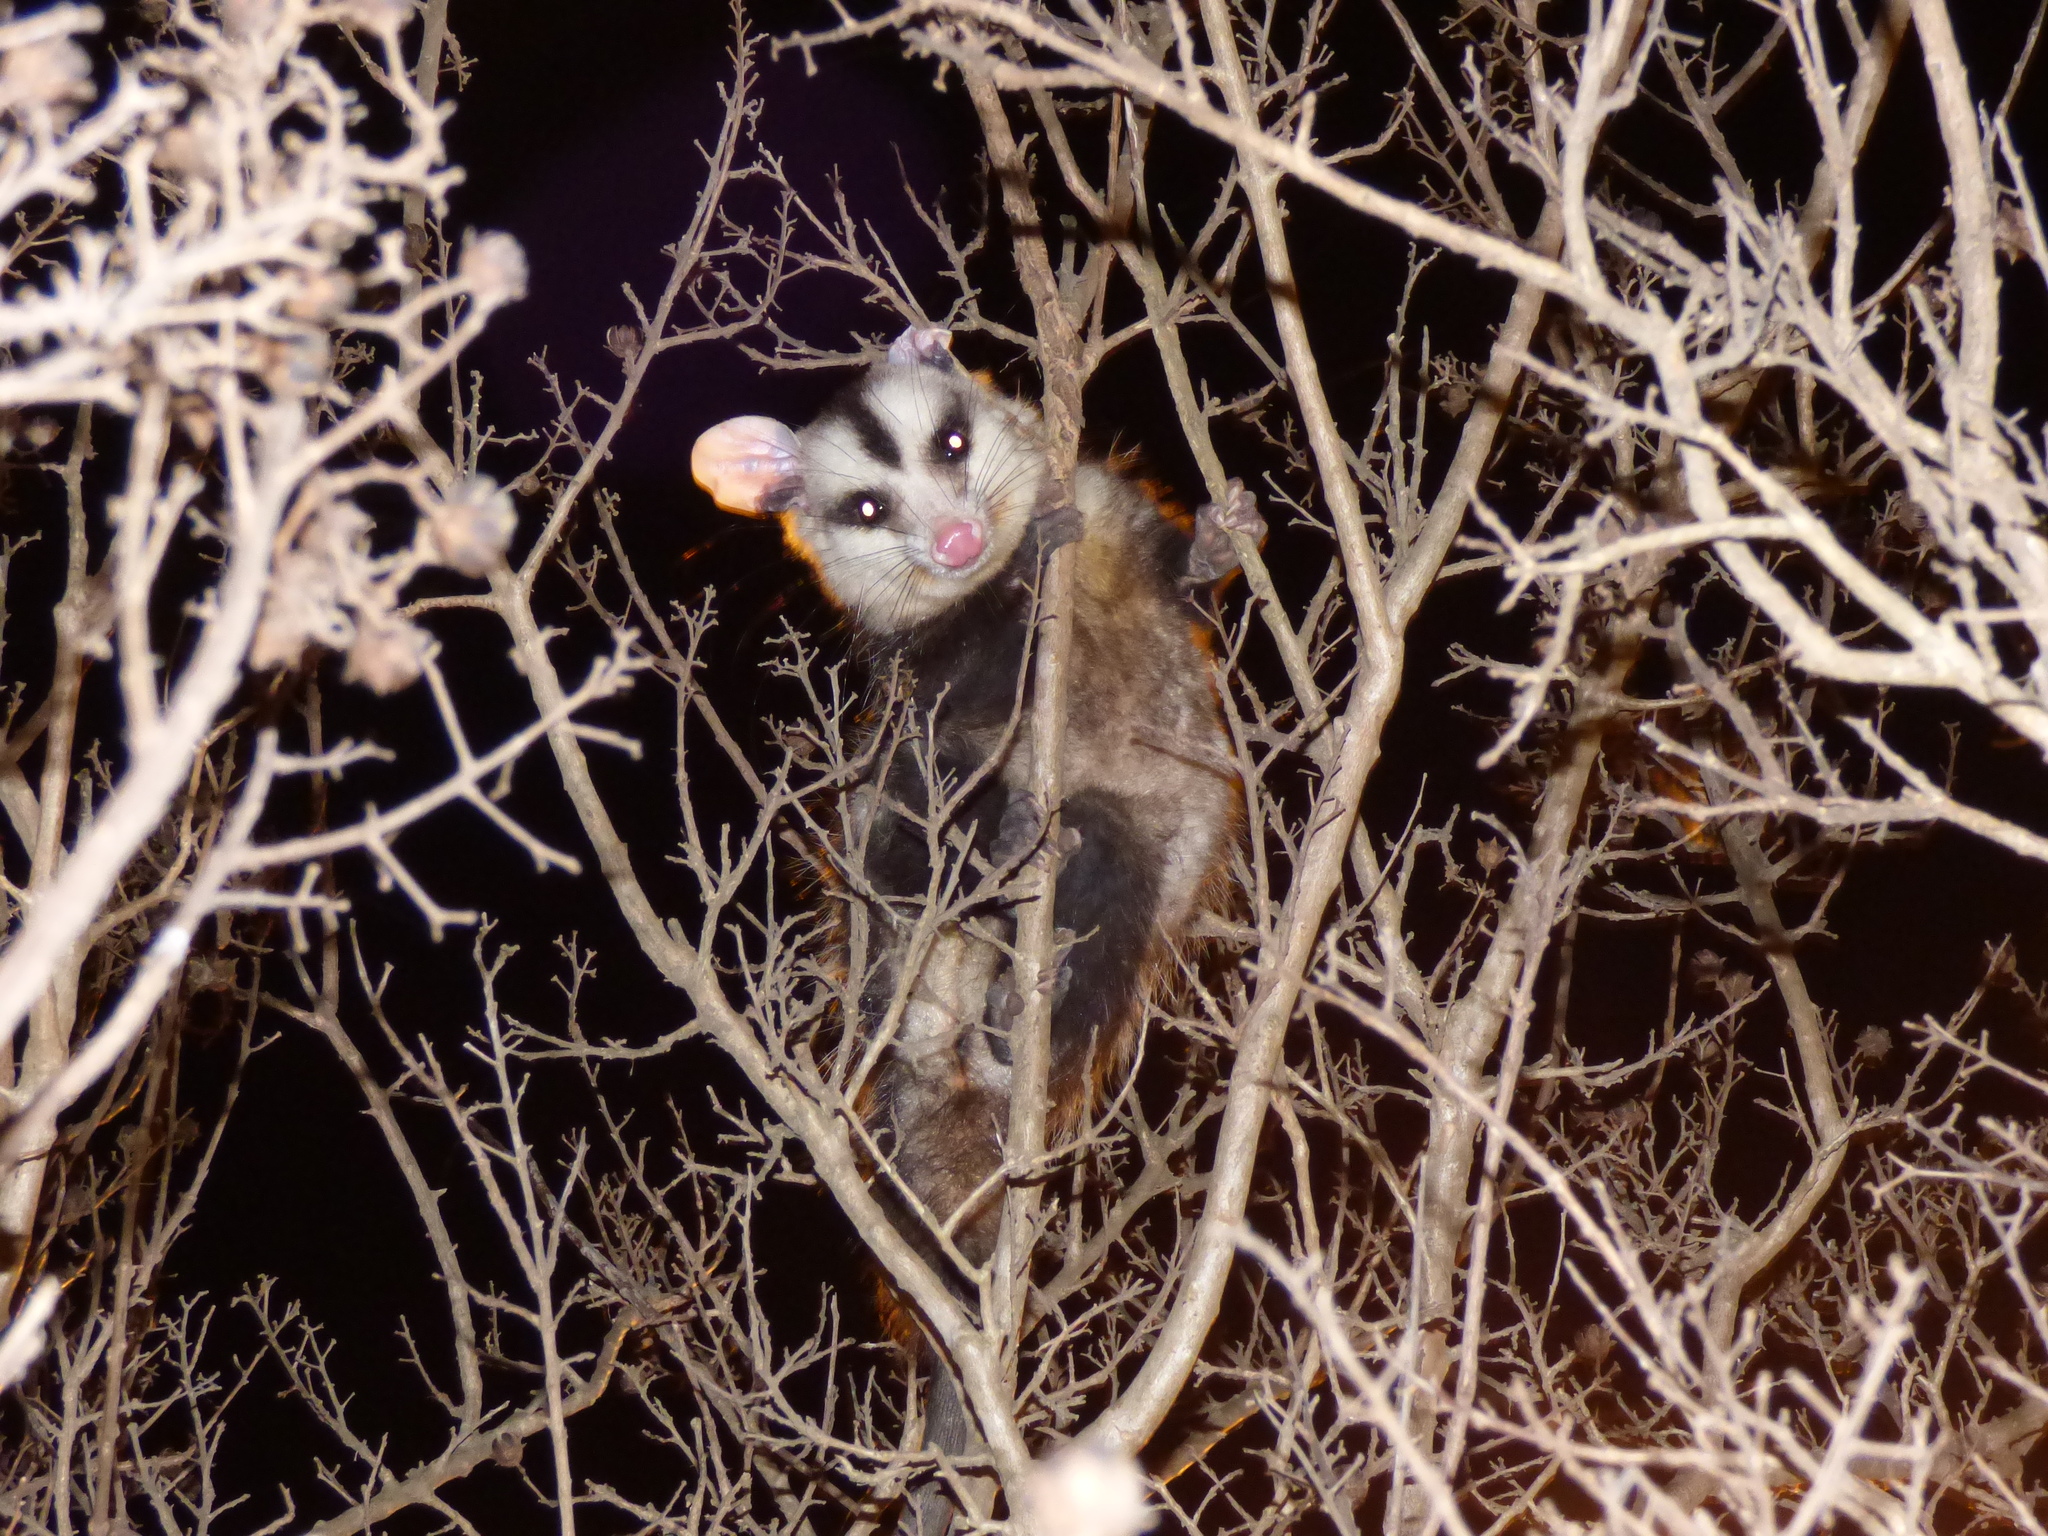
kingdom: Animalia
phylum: Chordata
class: Mammalia
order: Didelphimorphia
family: Didelphidae
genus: Didelphis
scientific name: Didelphis albiventris
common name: White-eared opossum
